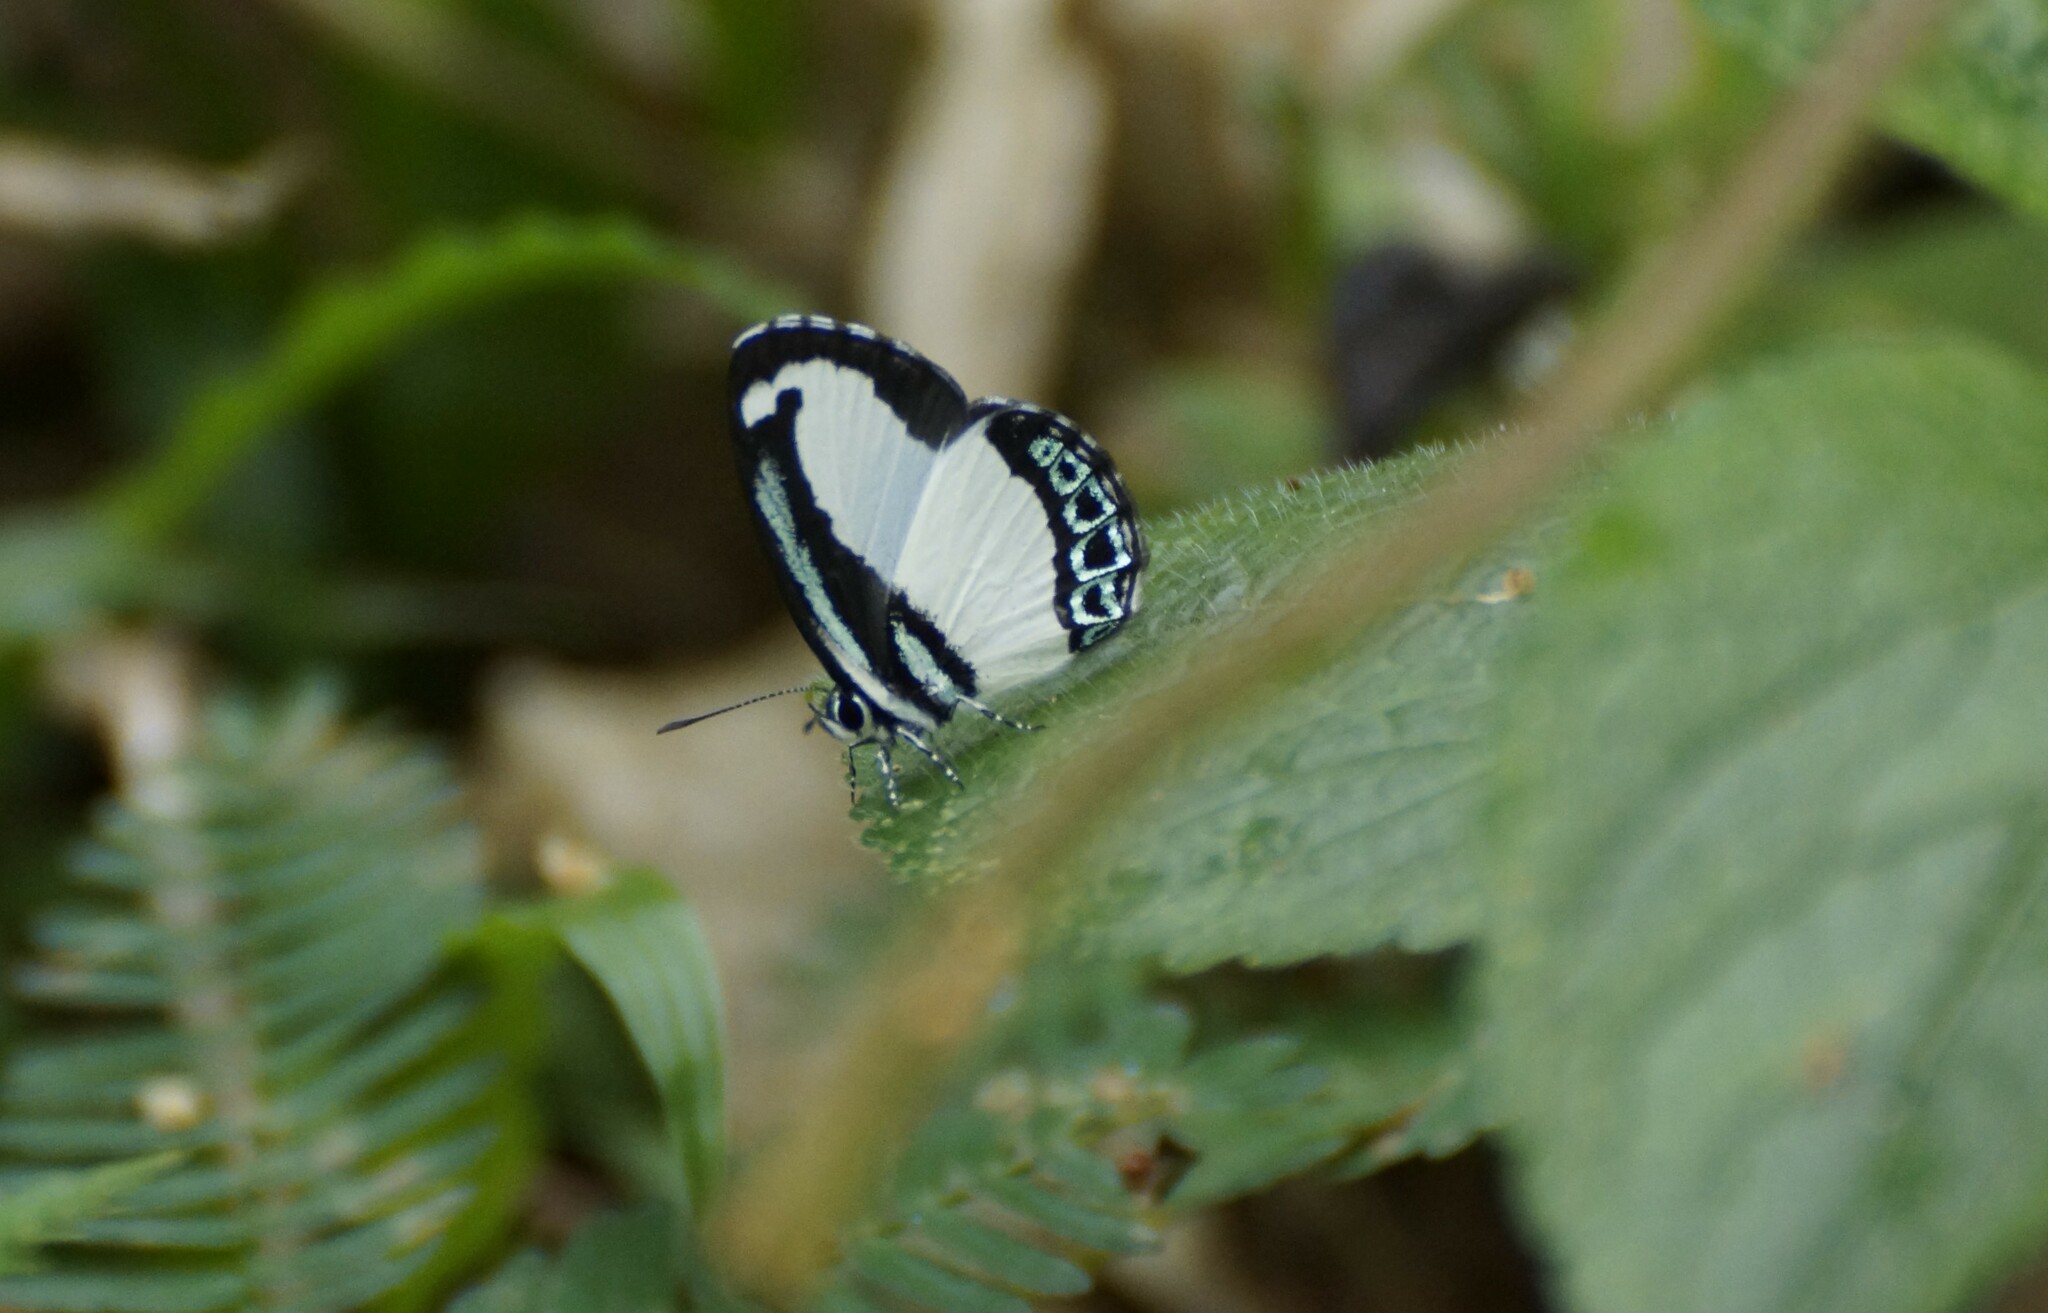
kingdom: Animalia
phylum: Arthropoda
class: Insecta
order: Lepidoptera
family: Lycaenidae
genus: Psychonotis
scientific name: Psychonotis caelius
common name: Small green banded blue
